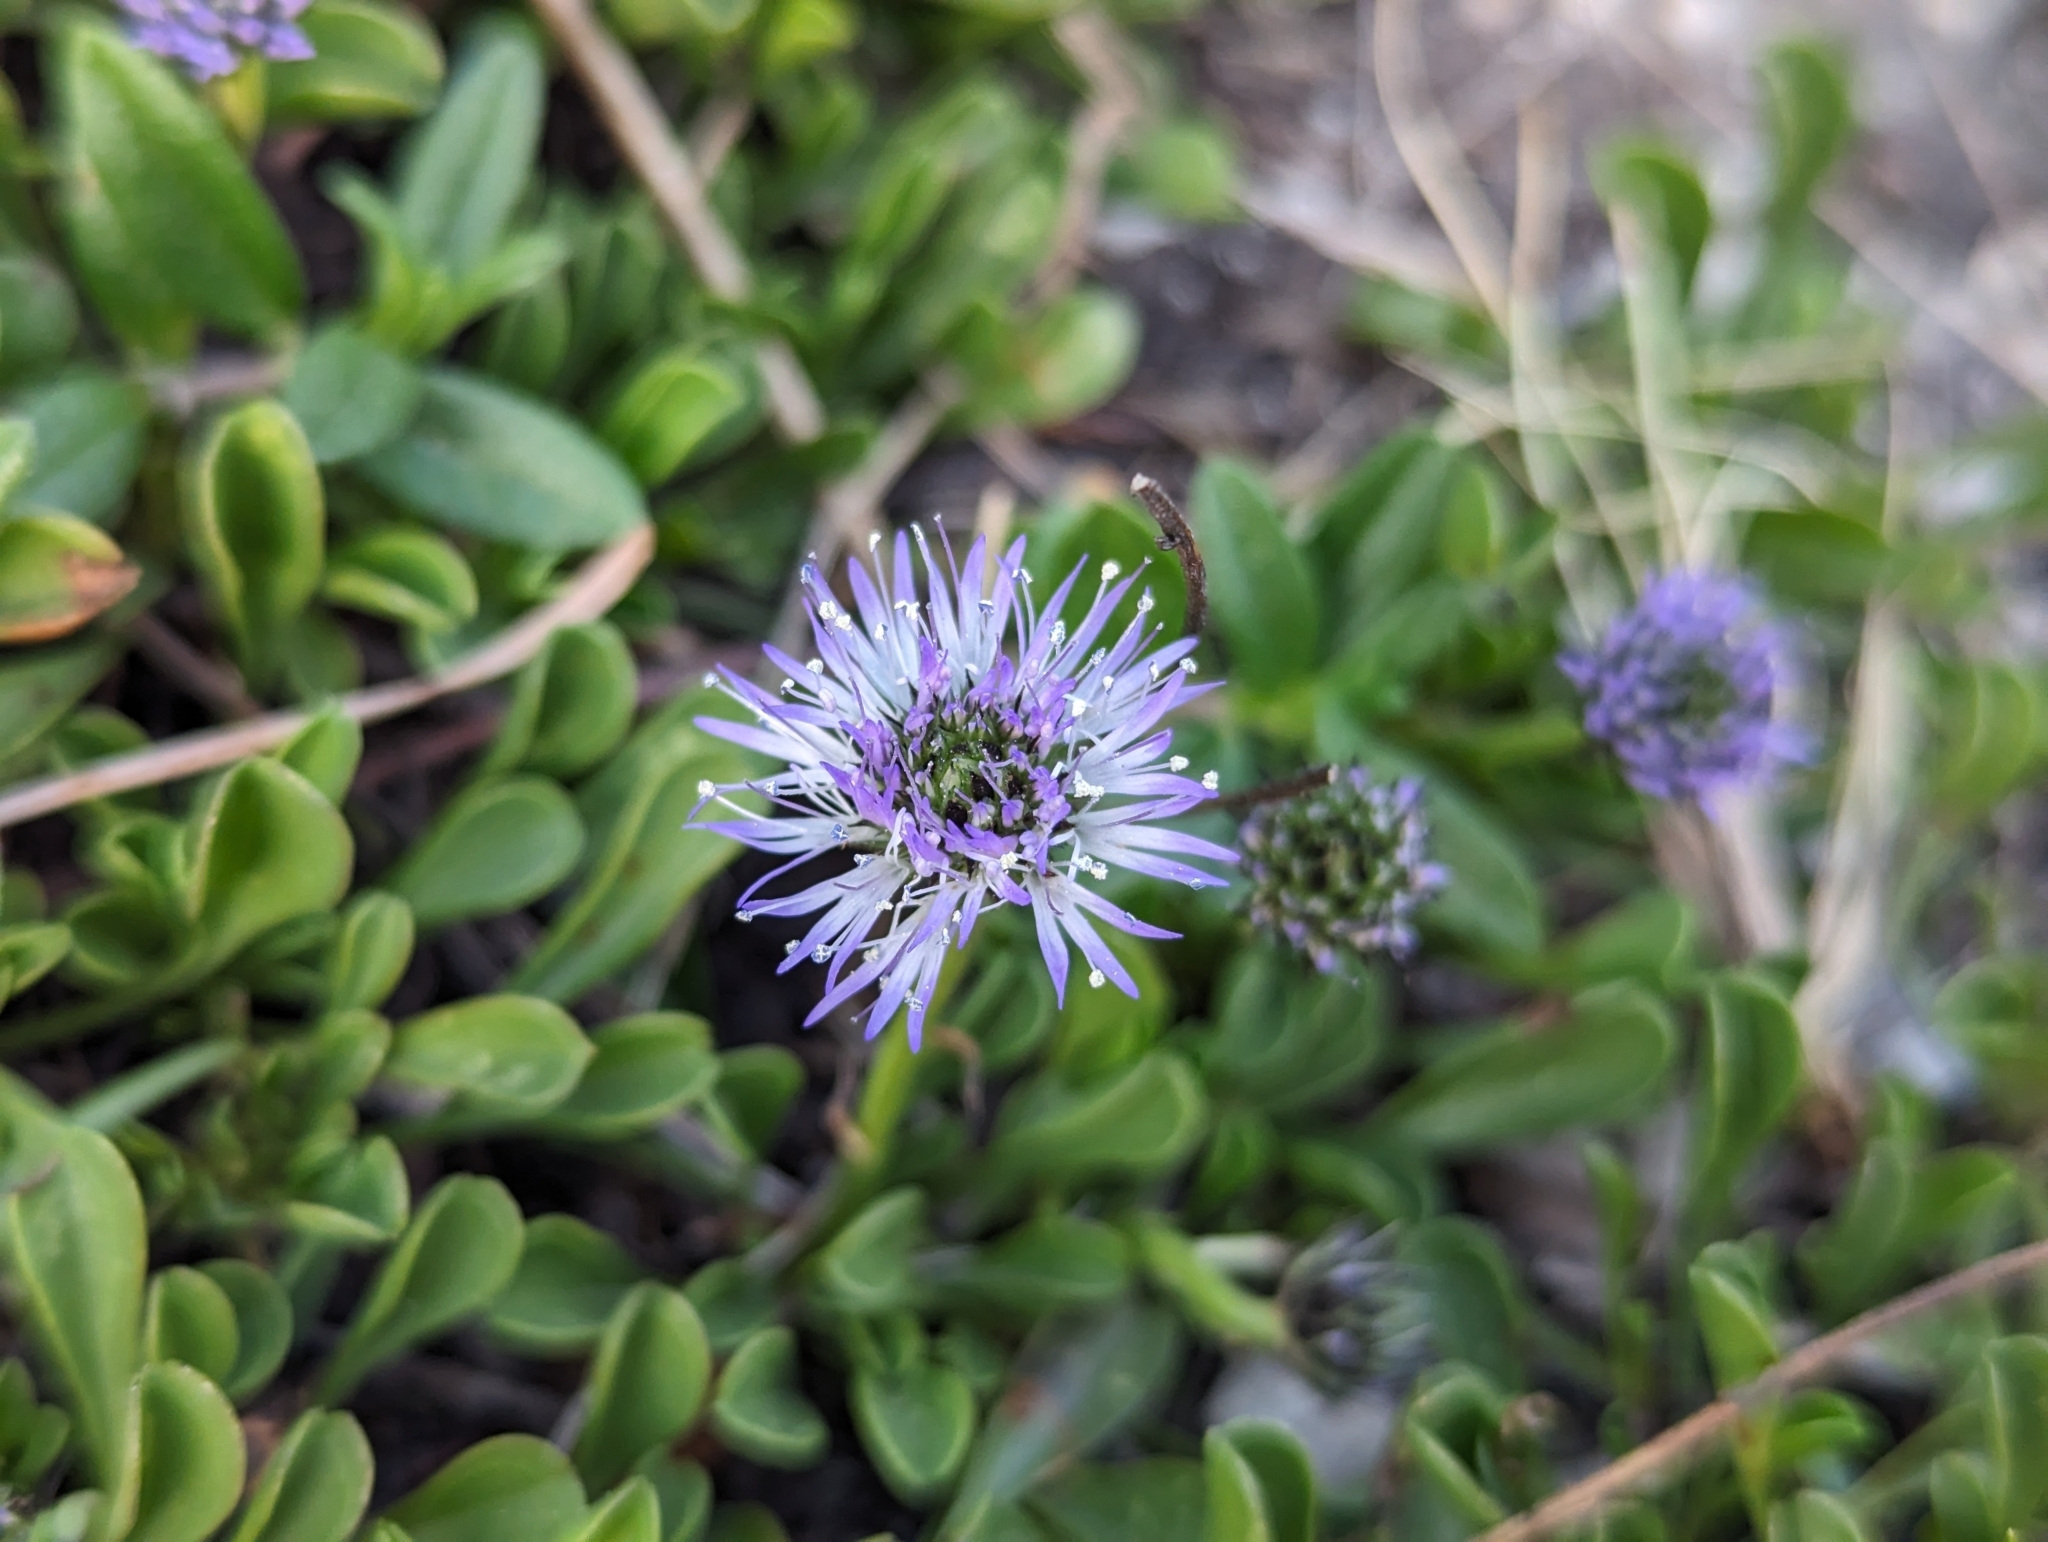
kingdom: Plantae
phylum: Tracheophyta
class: Magnoliopsida
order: Lamiales
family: Plantaginaceae
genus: Globularia
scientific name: Globularia cordifolia
